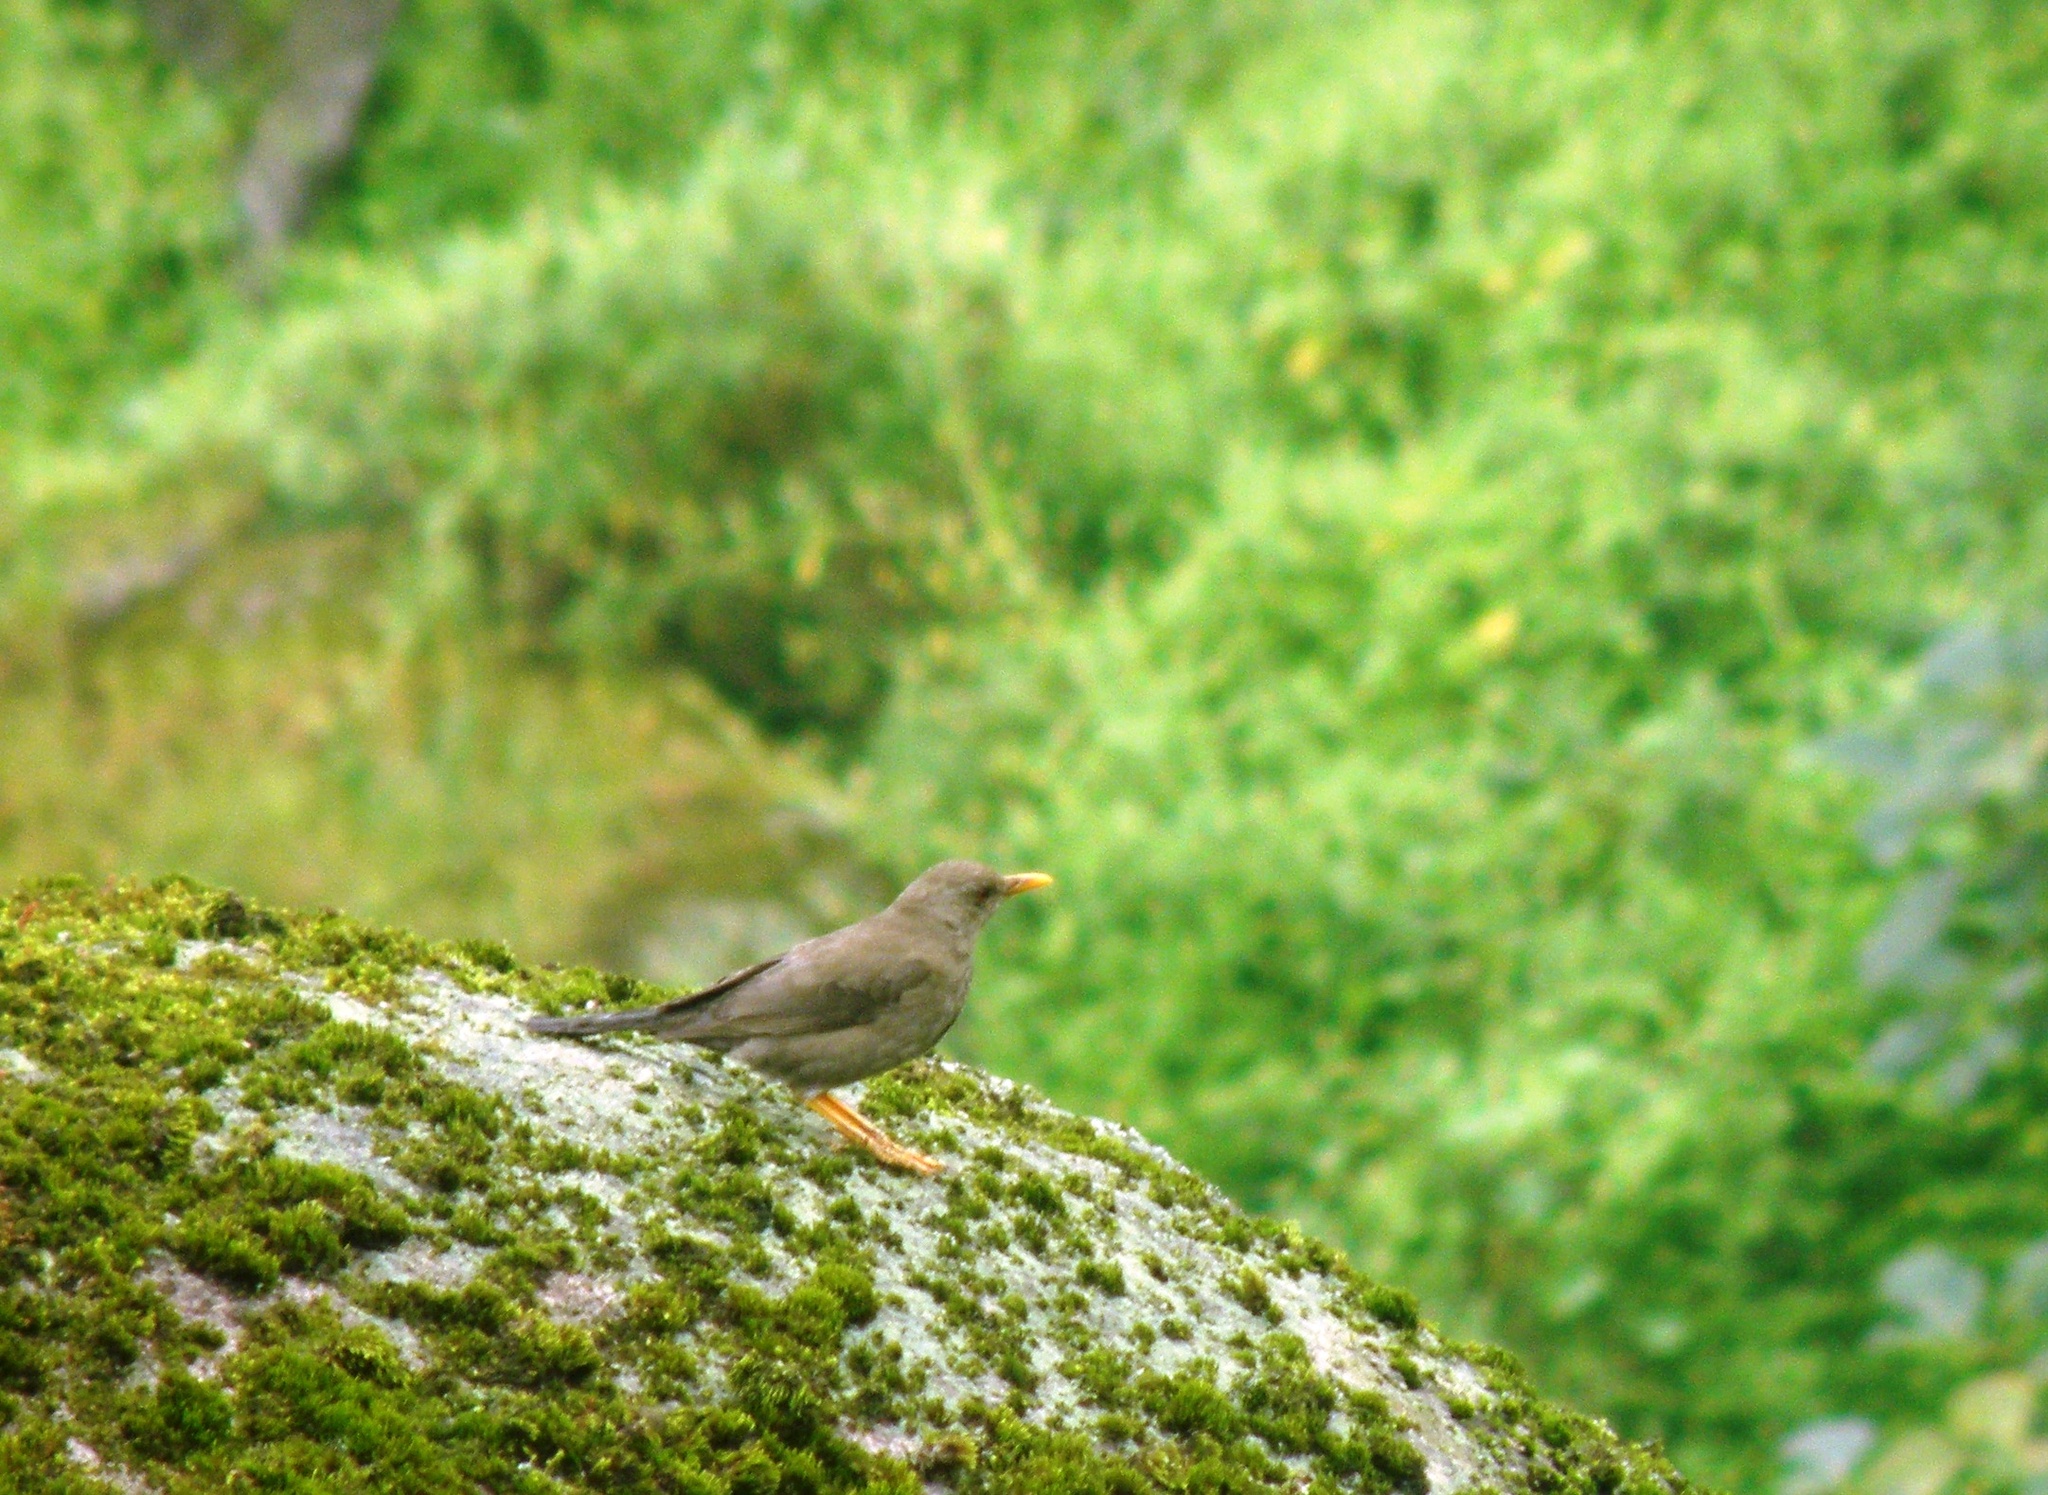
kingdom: Animalia
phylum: Chordata
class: Aves
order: Passeriformes
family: Turdidae
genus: Turdus
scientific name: Turdus chiguanco
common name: Chiguanco thrush
